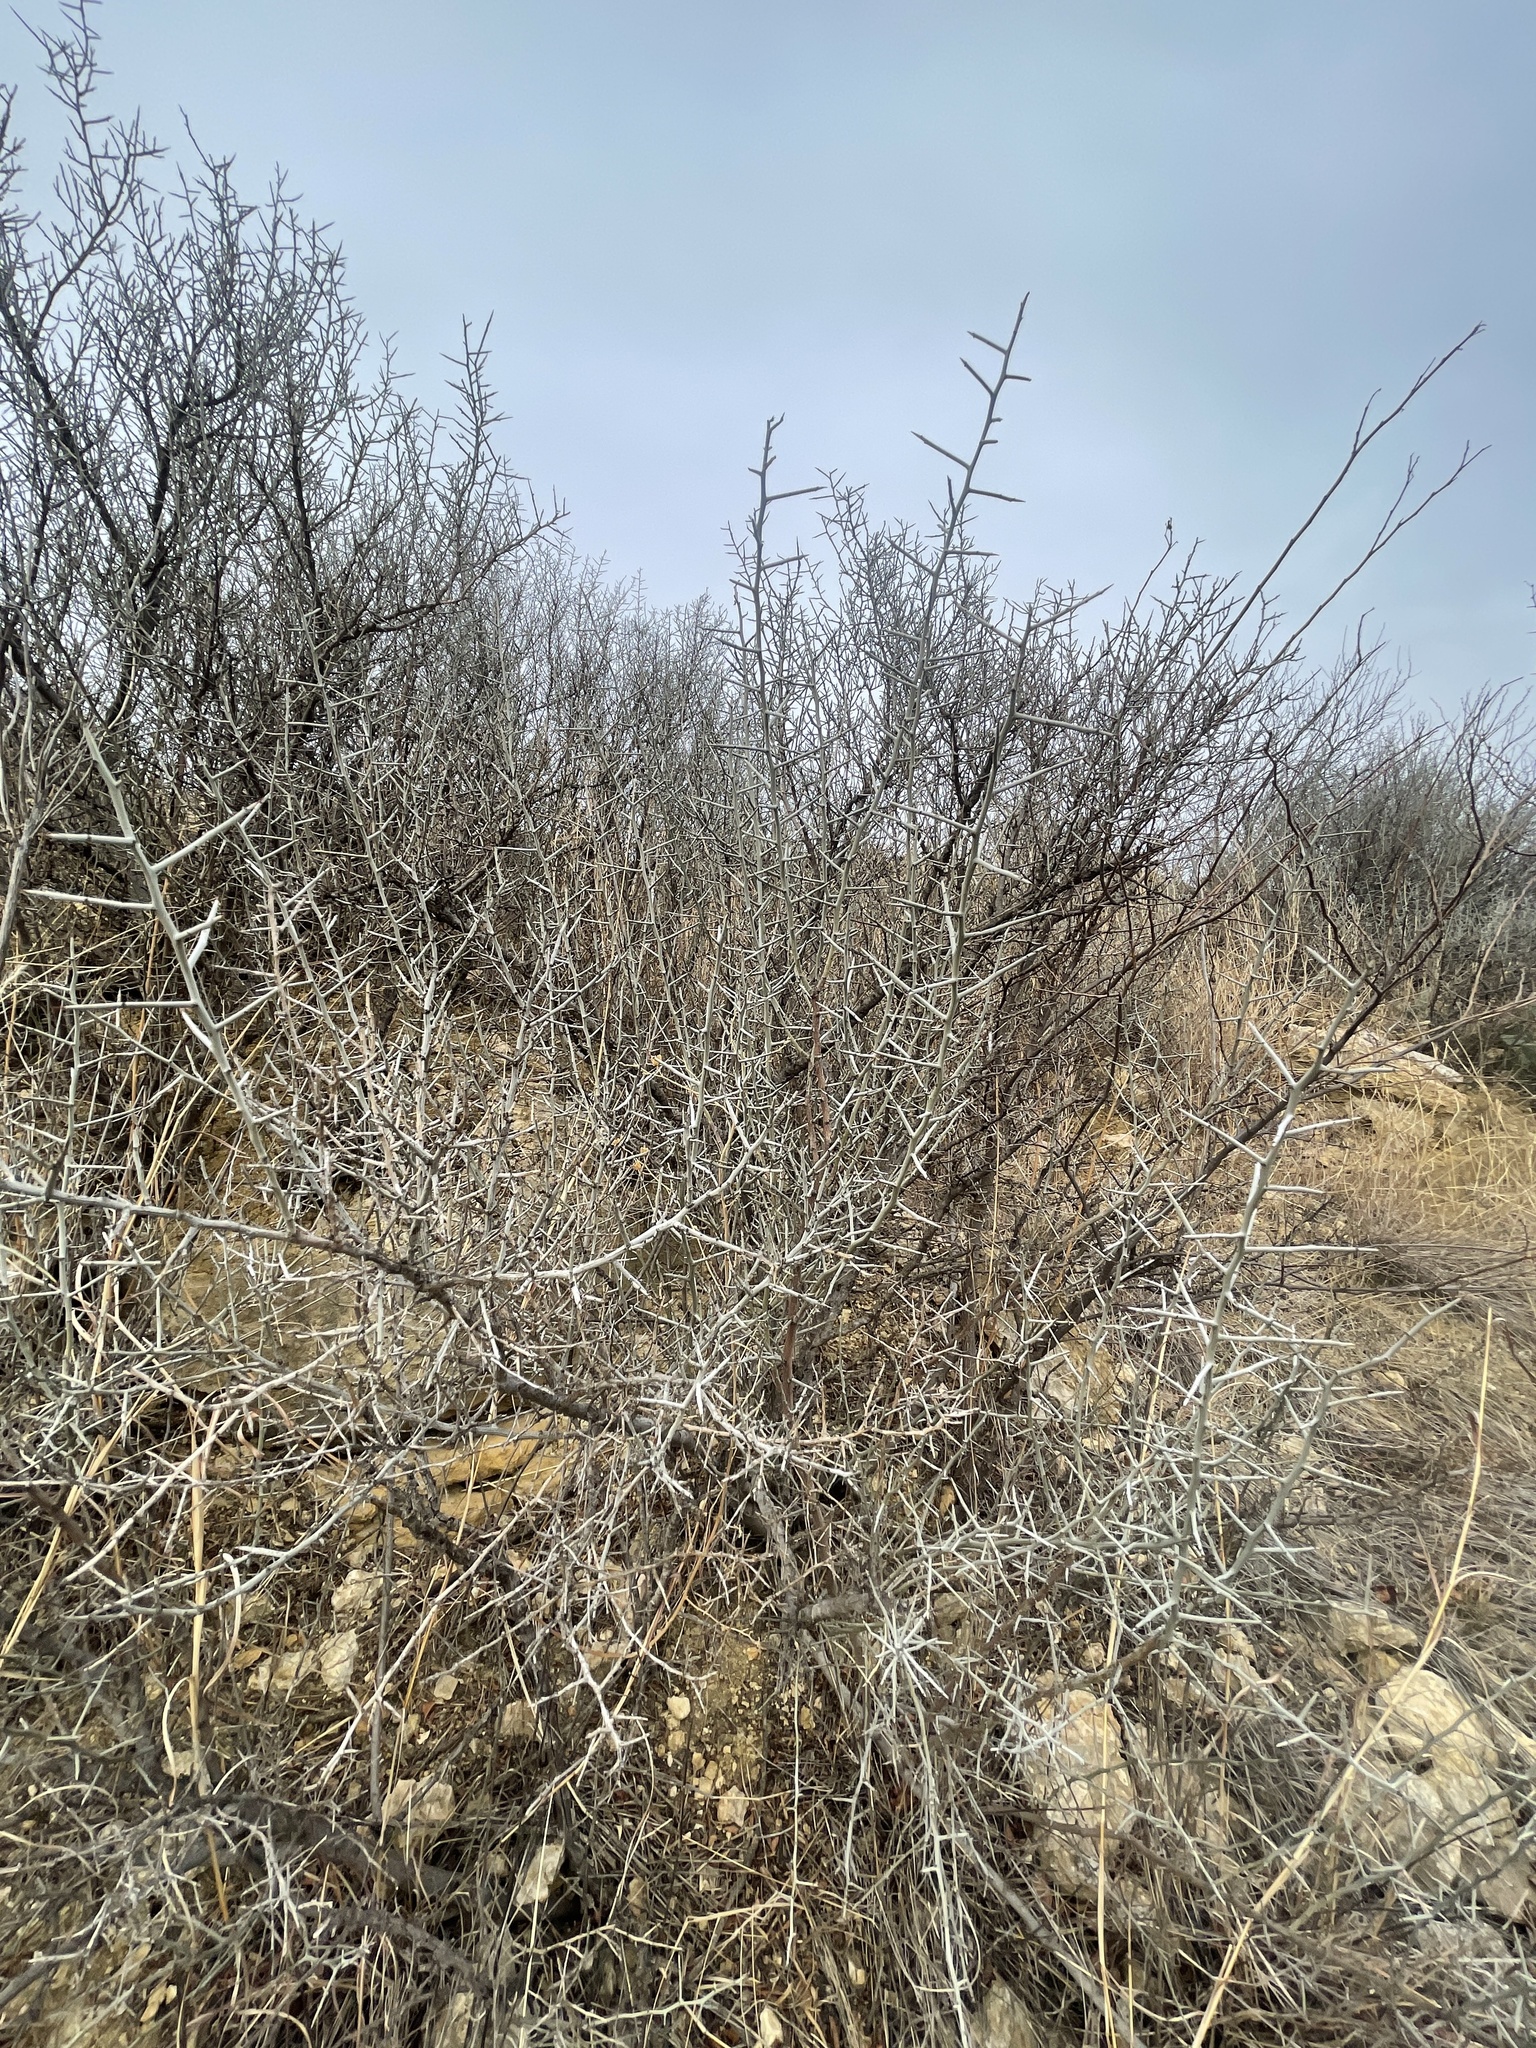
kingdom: Plantae
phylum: Tracheophyta
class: Magnoliopsida
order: Rosales
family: Rhamnaceae
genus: Sarcomphalus
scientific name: Sarcomphalus obtusifolius
